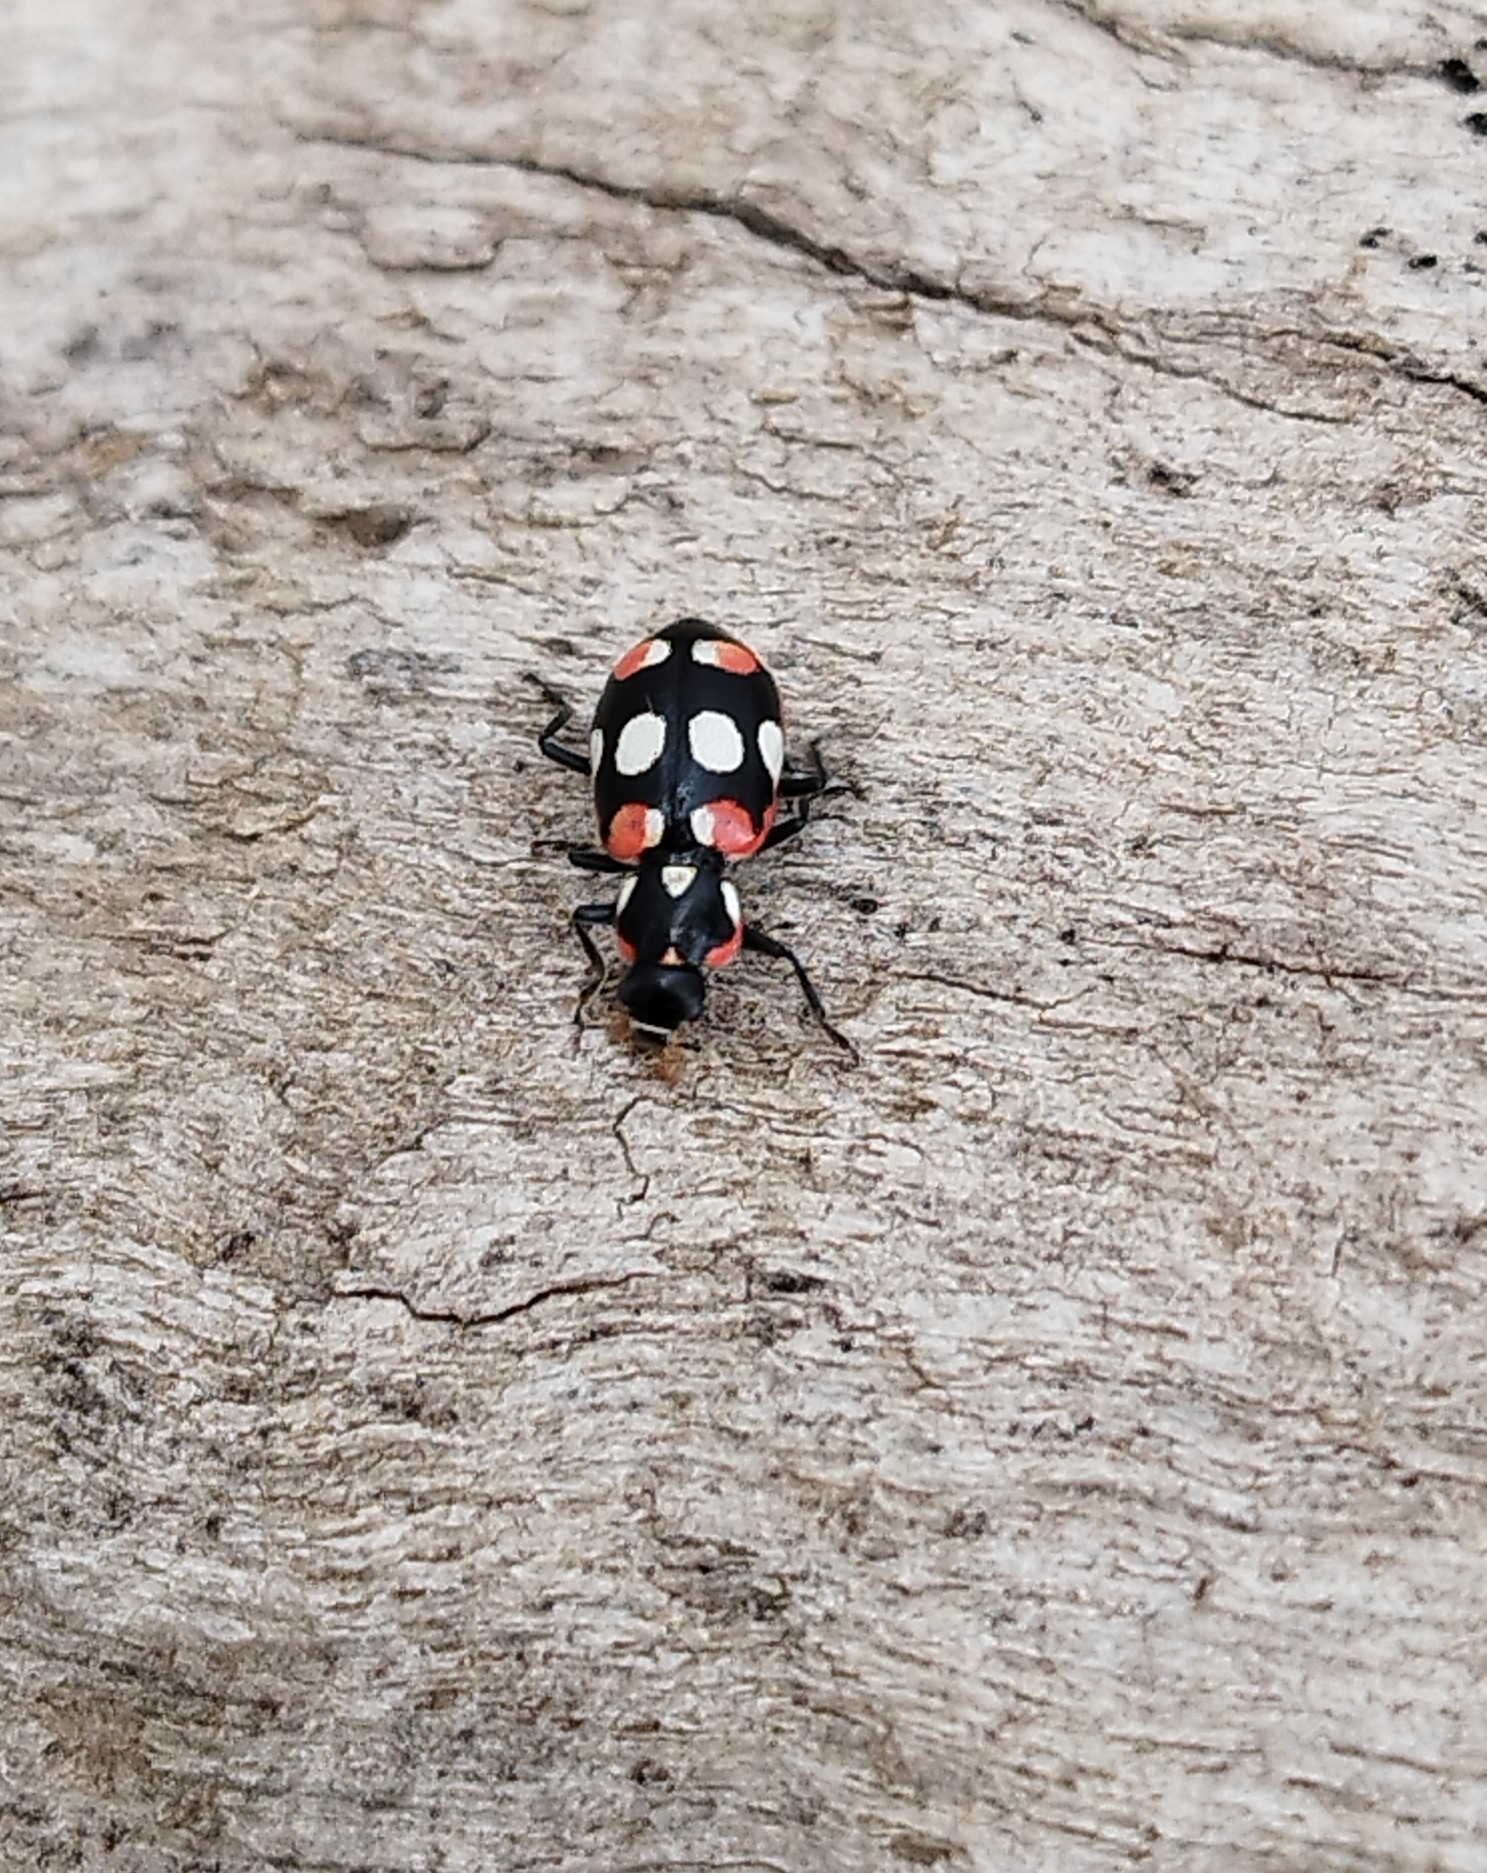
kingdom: Animalia
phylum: Arthropoda
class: Insecta
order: Coleoptera
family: Coccinellidae
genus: Eriopis
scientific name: Eriopis connexa
